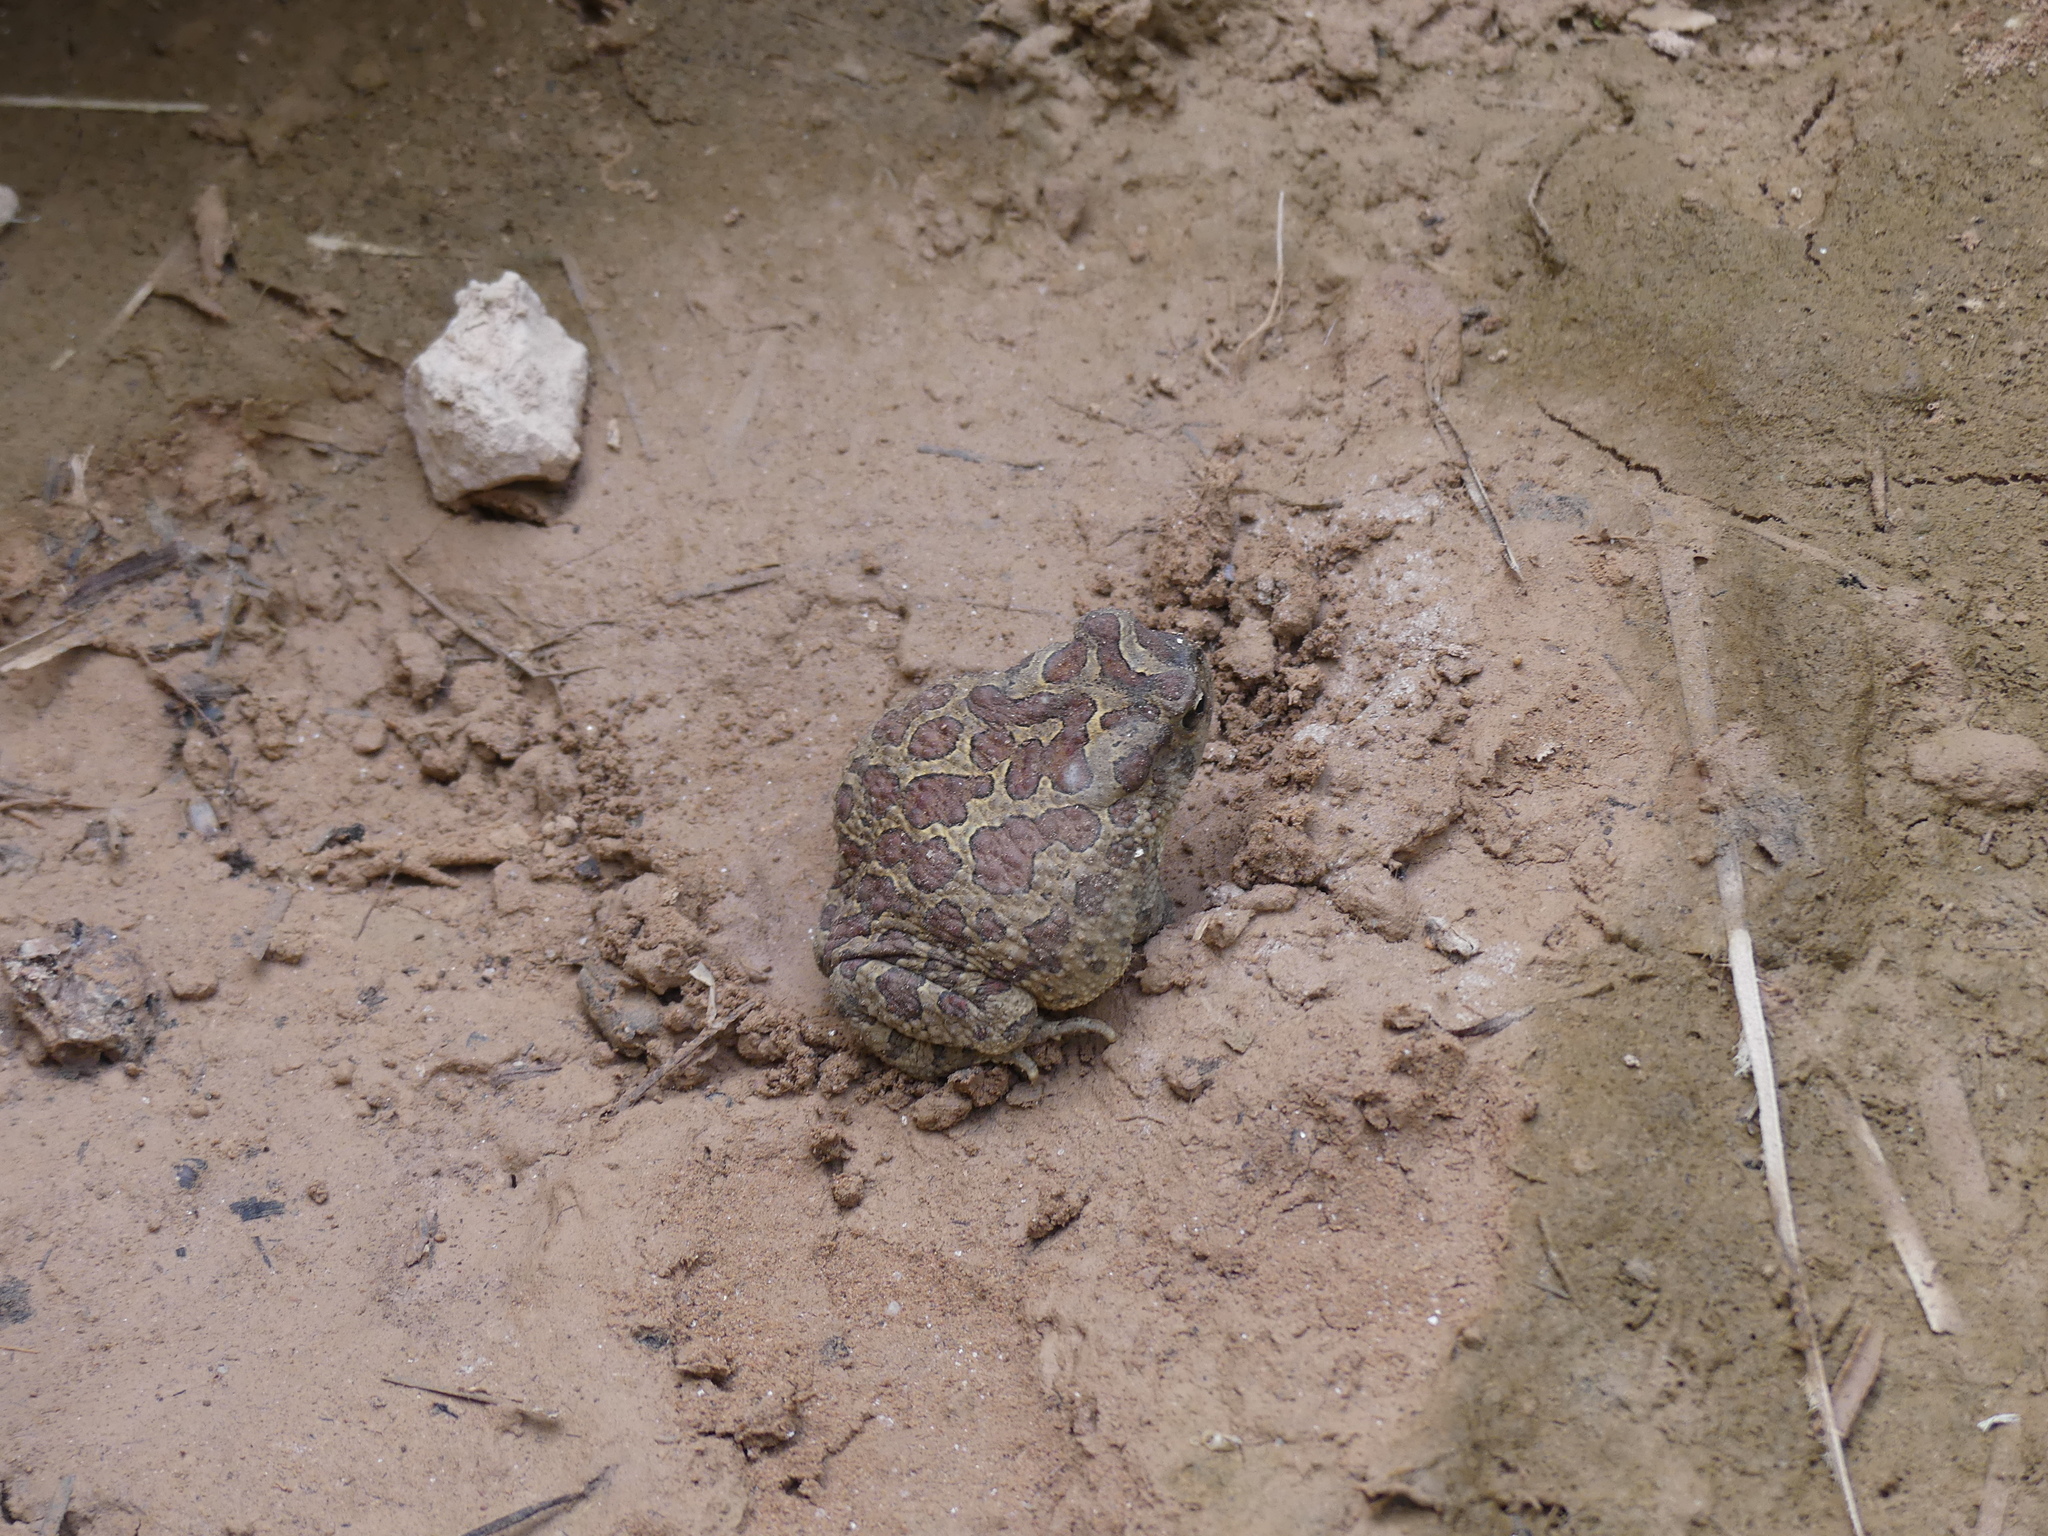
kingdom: Animalia
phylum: Chordata
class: Amphibia
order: Anura
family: Bufonidae
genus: Sclerophrys
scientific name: Sclerophrys mauritanica
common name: Berber toad
